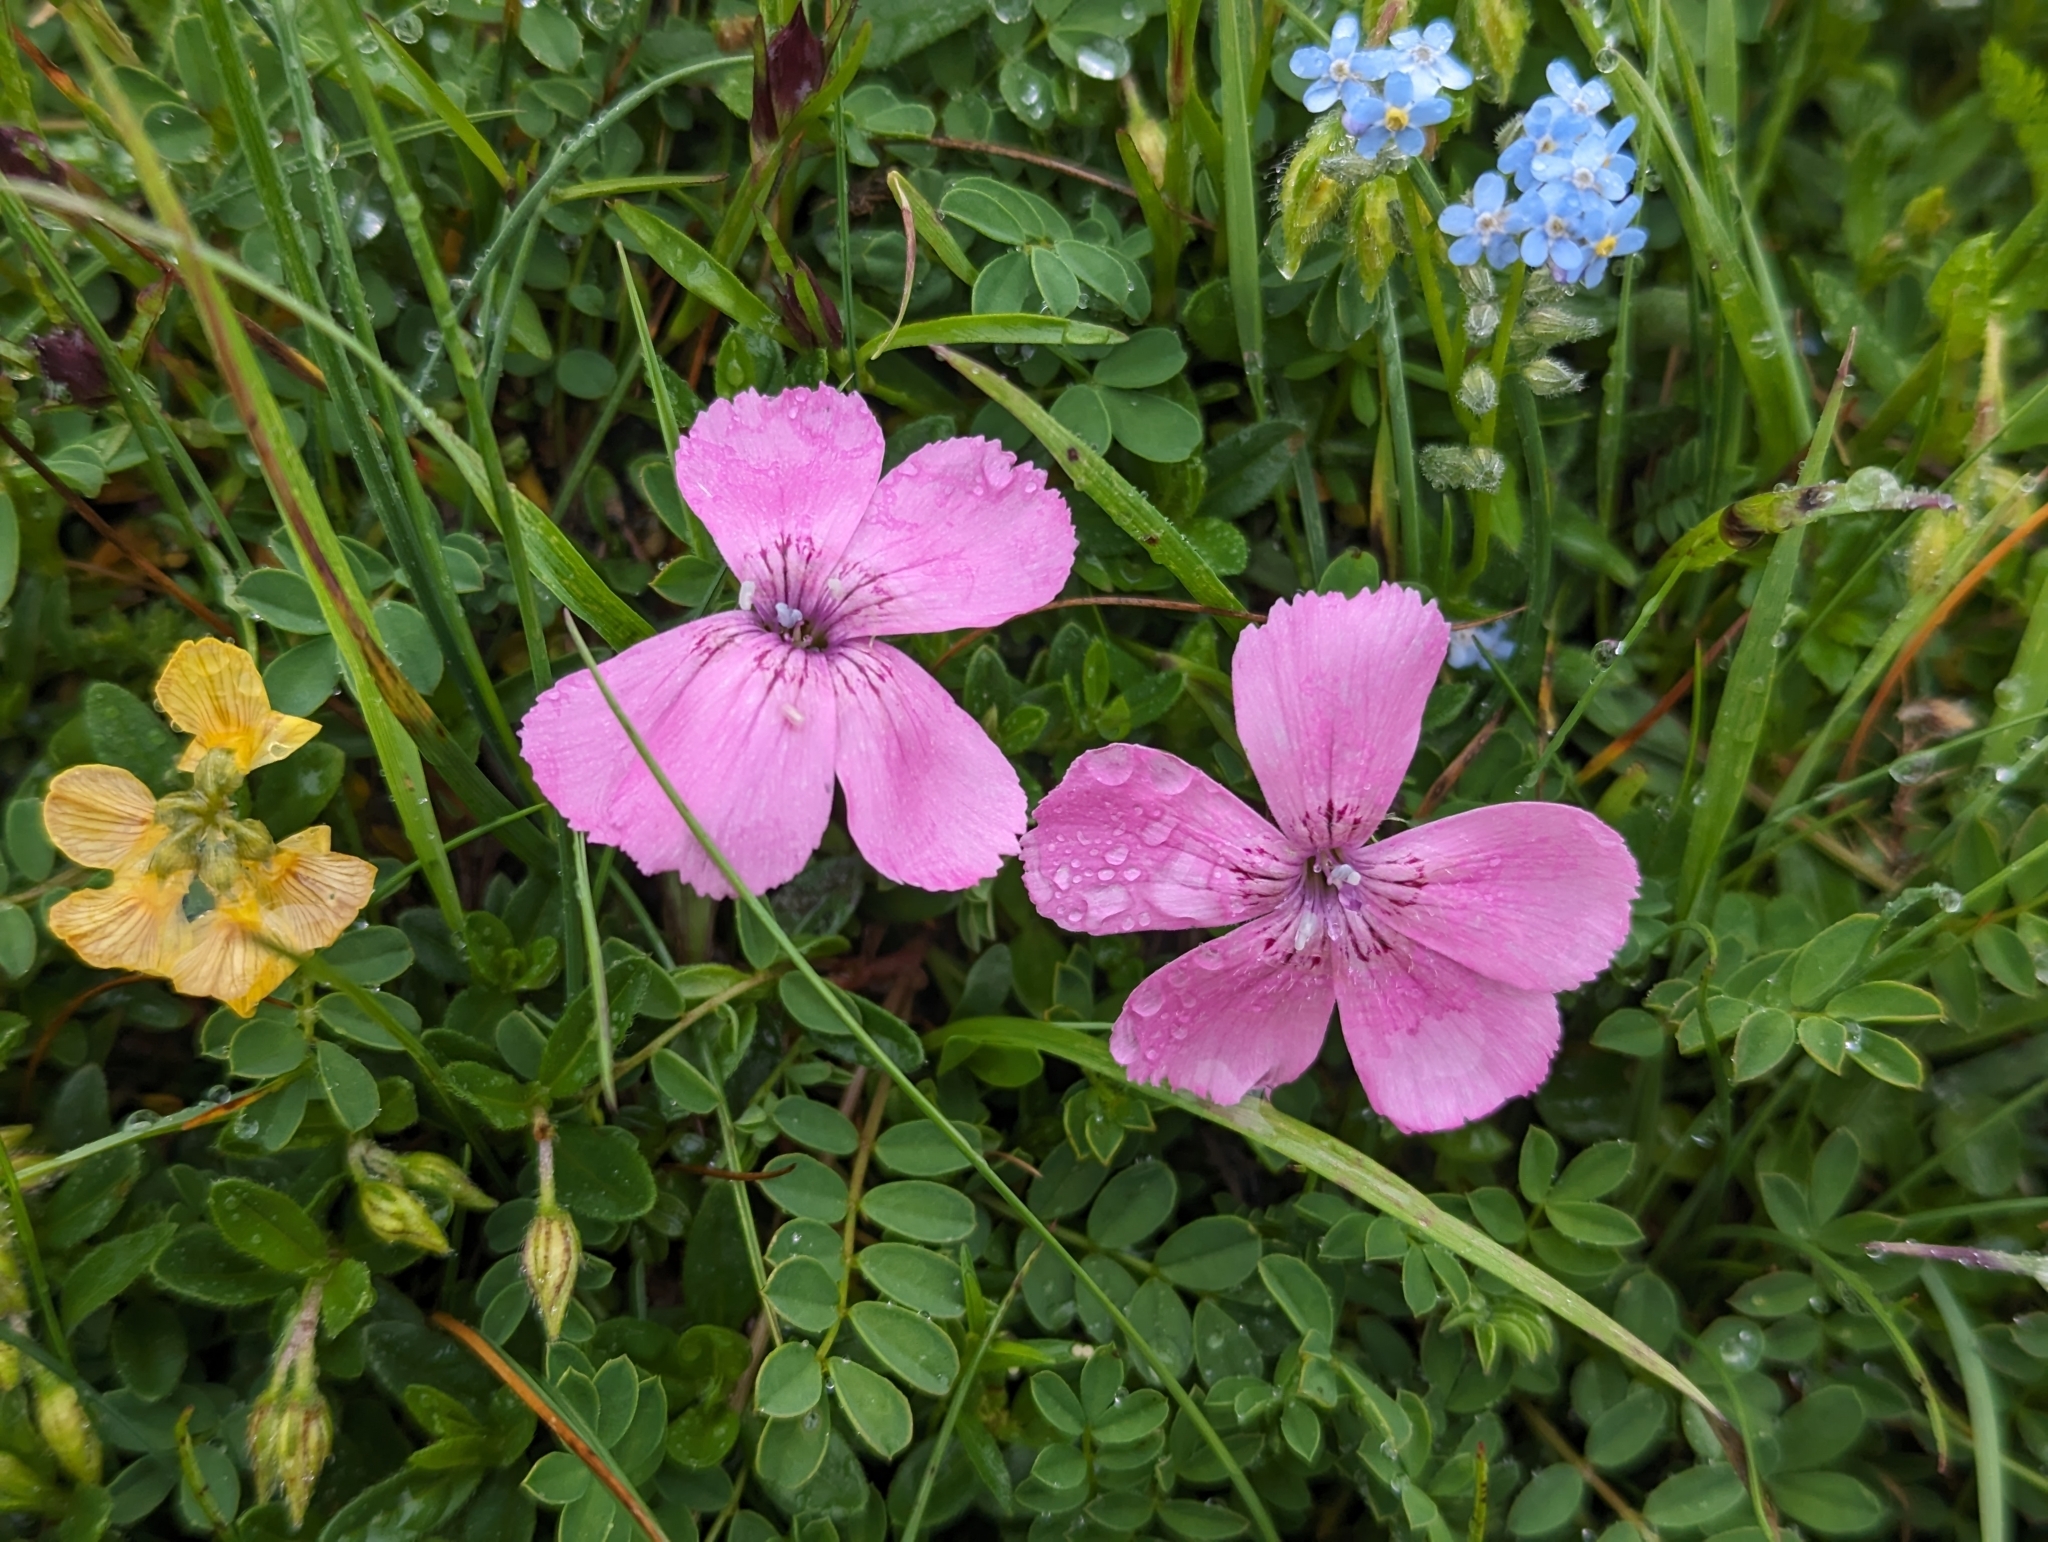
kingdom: Plantae
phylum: Tracheophyta
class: Magnoliopsida
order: Caryophyllales
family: Caryophyllaceae
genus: Dianthus
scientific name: Dianthus alpinus
